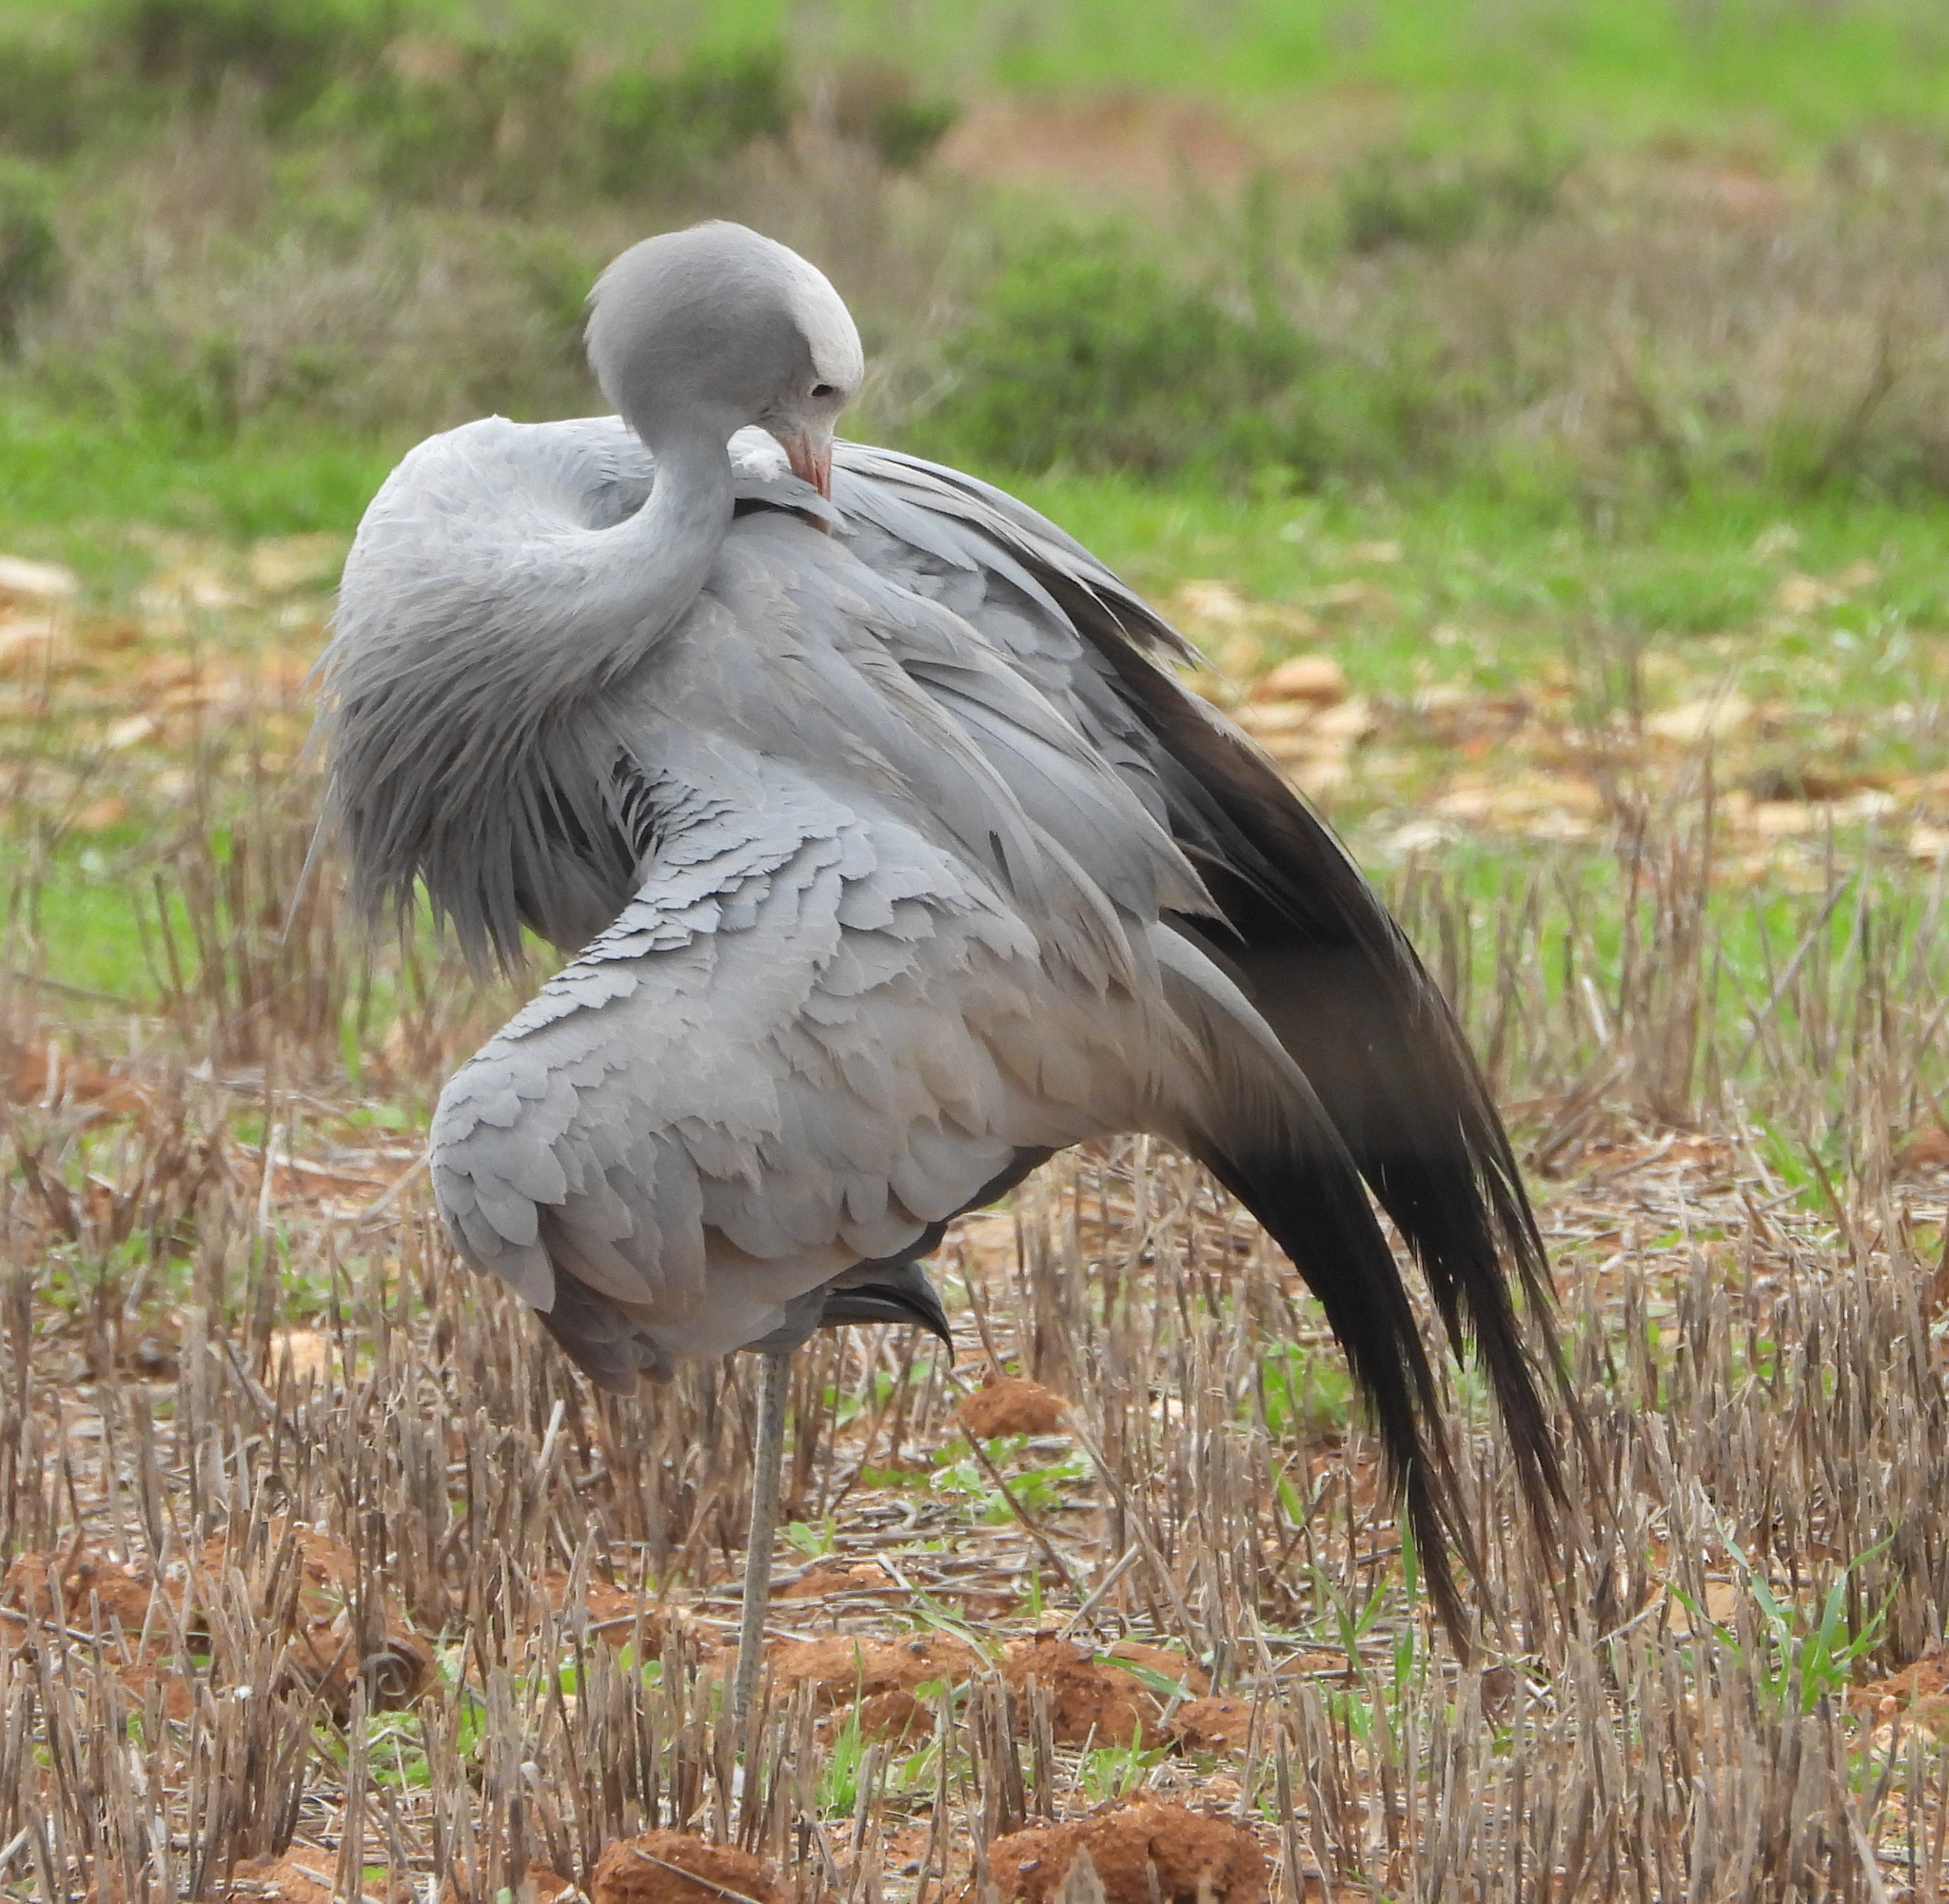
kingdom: Animalia
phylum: Chordata
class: Aves
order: Gruiformes
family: Gruidae
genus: Anthropoides
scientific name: Anthropoides paradiseus
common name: Blue crane
